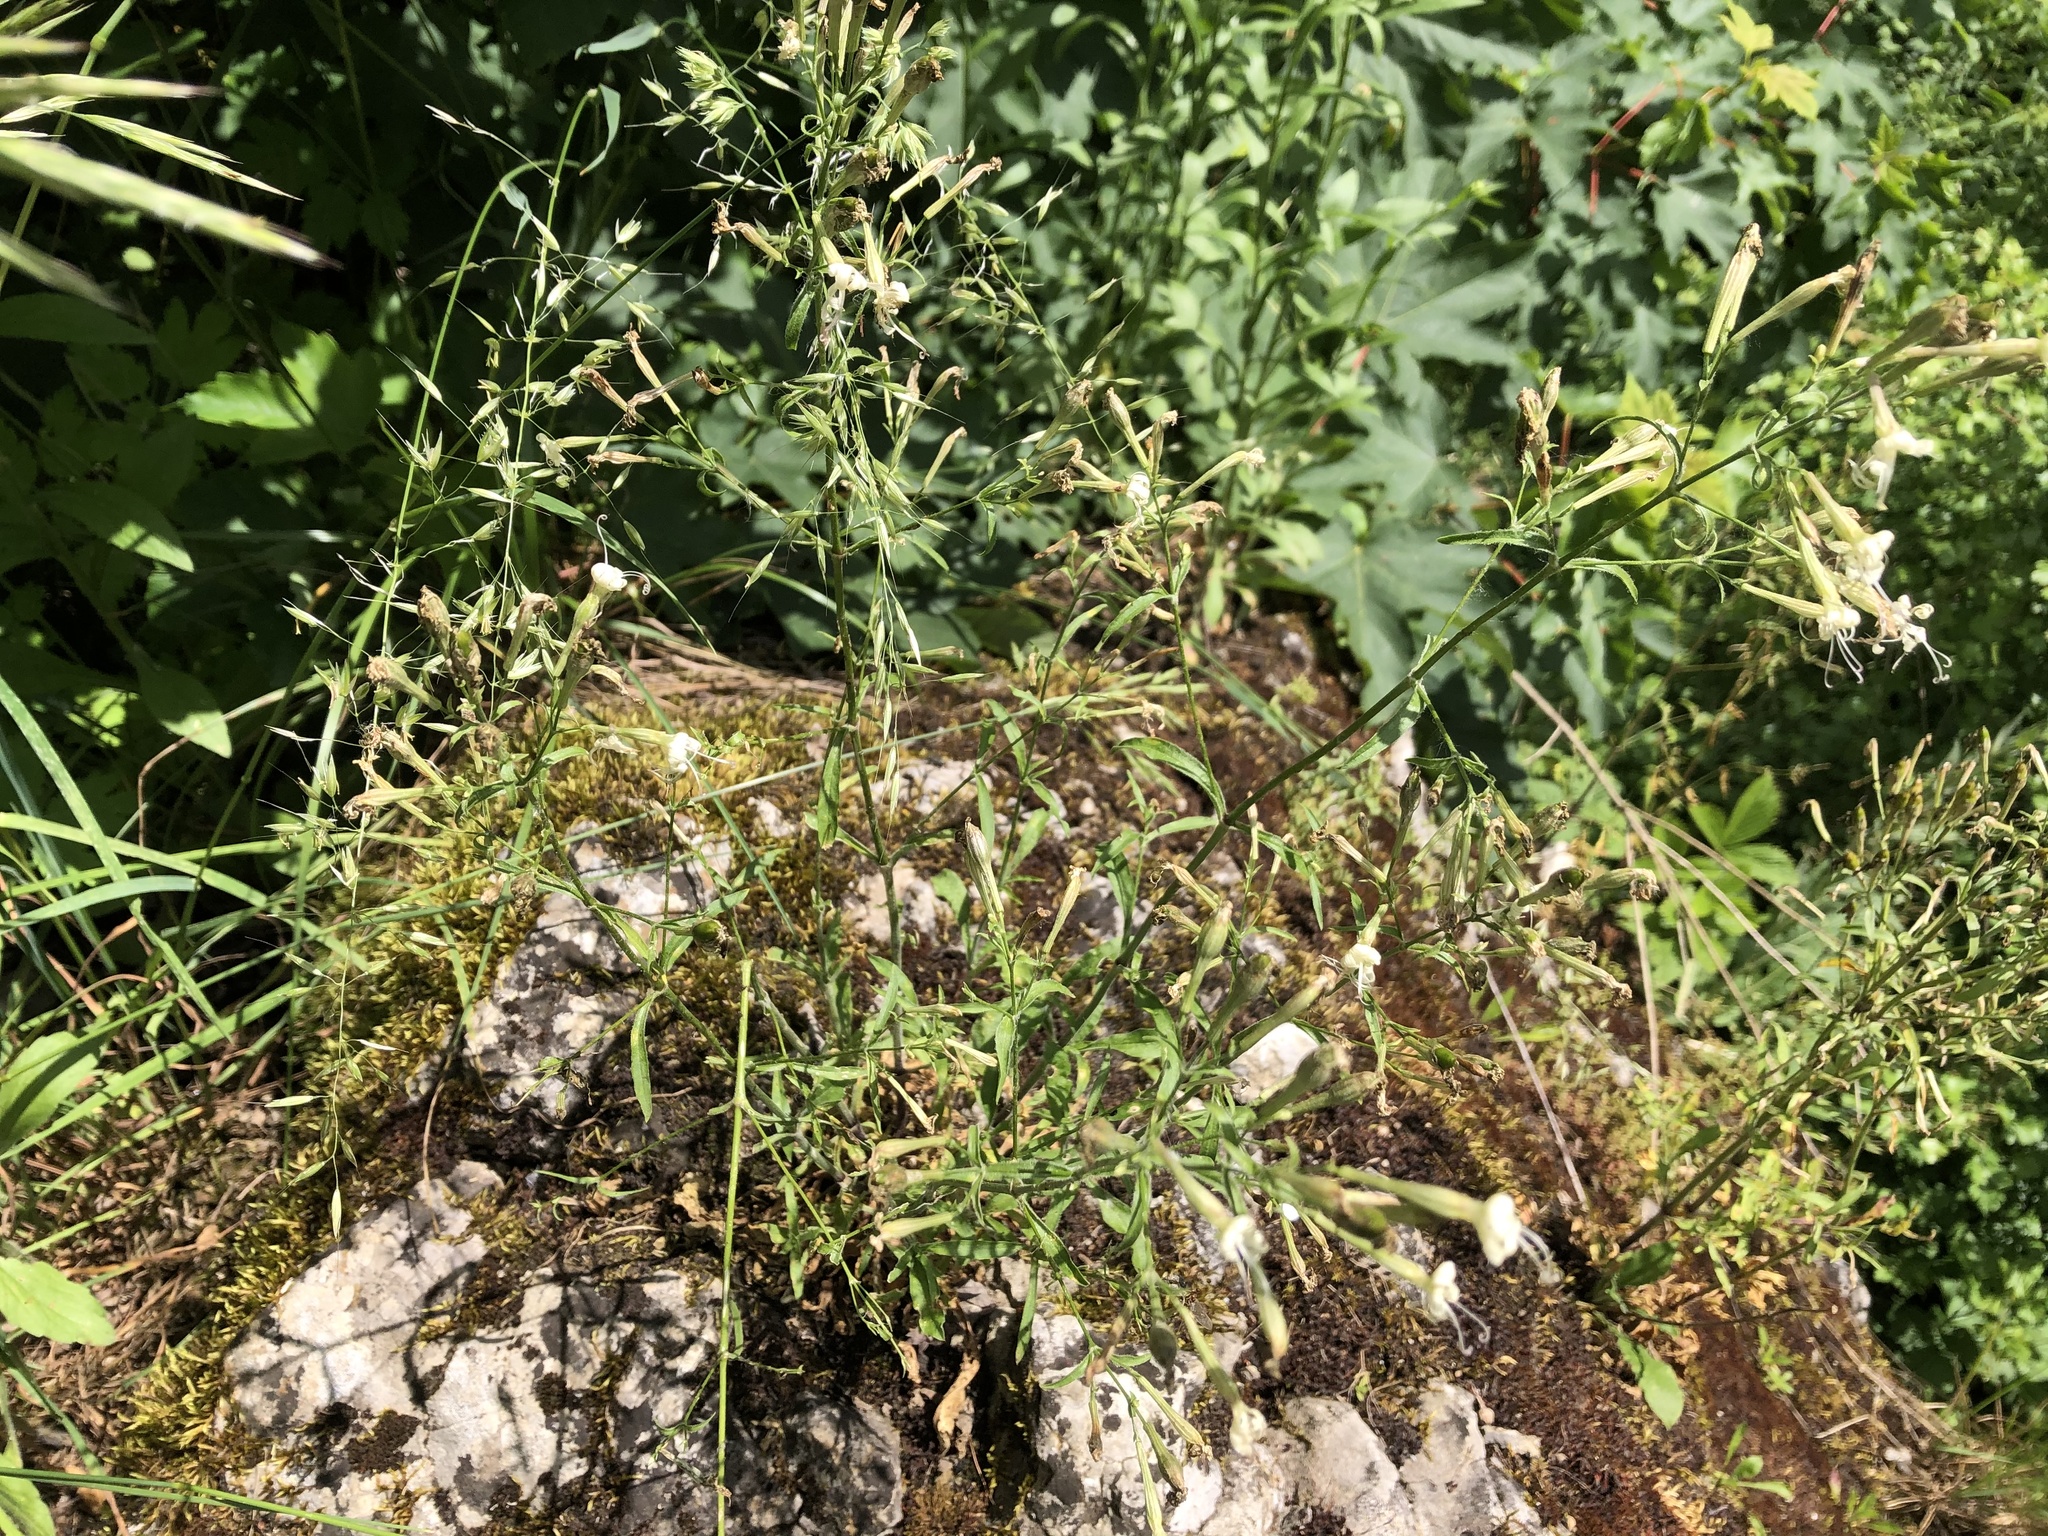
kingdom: Plantae
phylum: Tracheophyta
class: Magnoliopsida
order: Caryophyllales
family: Caryophyllaceae
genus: Silene
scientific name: Silene nutans
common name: Nottingham catchfly
